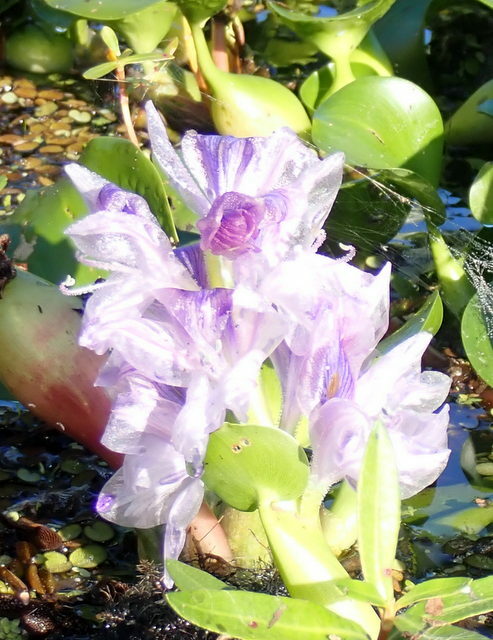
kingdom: Plantae
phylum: Tracheophyta
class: Liliopsida
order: Commelinales
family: Pontederiaceae
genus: Pontederia
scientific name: Pontederia crassipes
